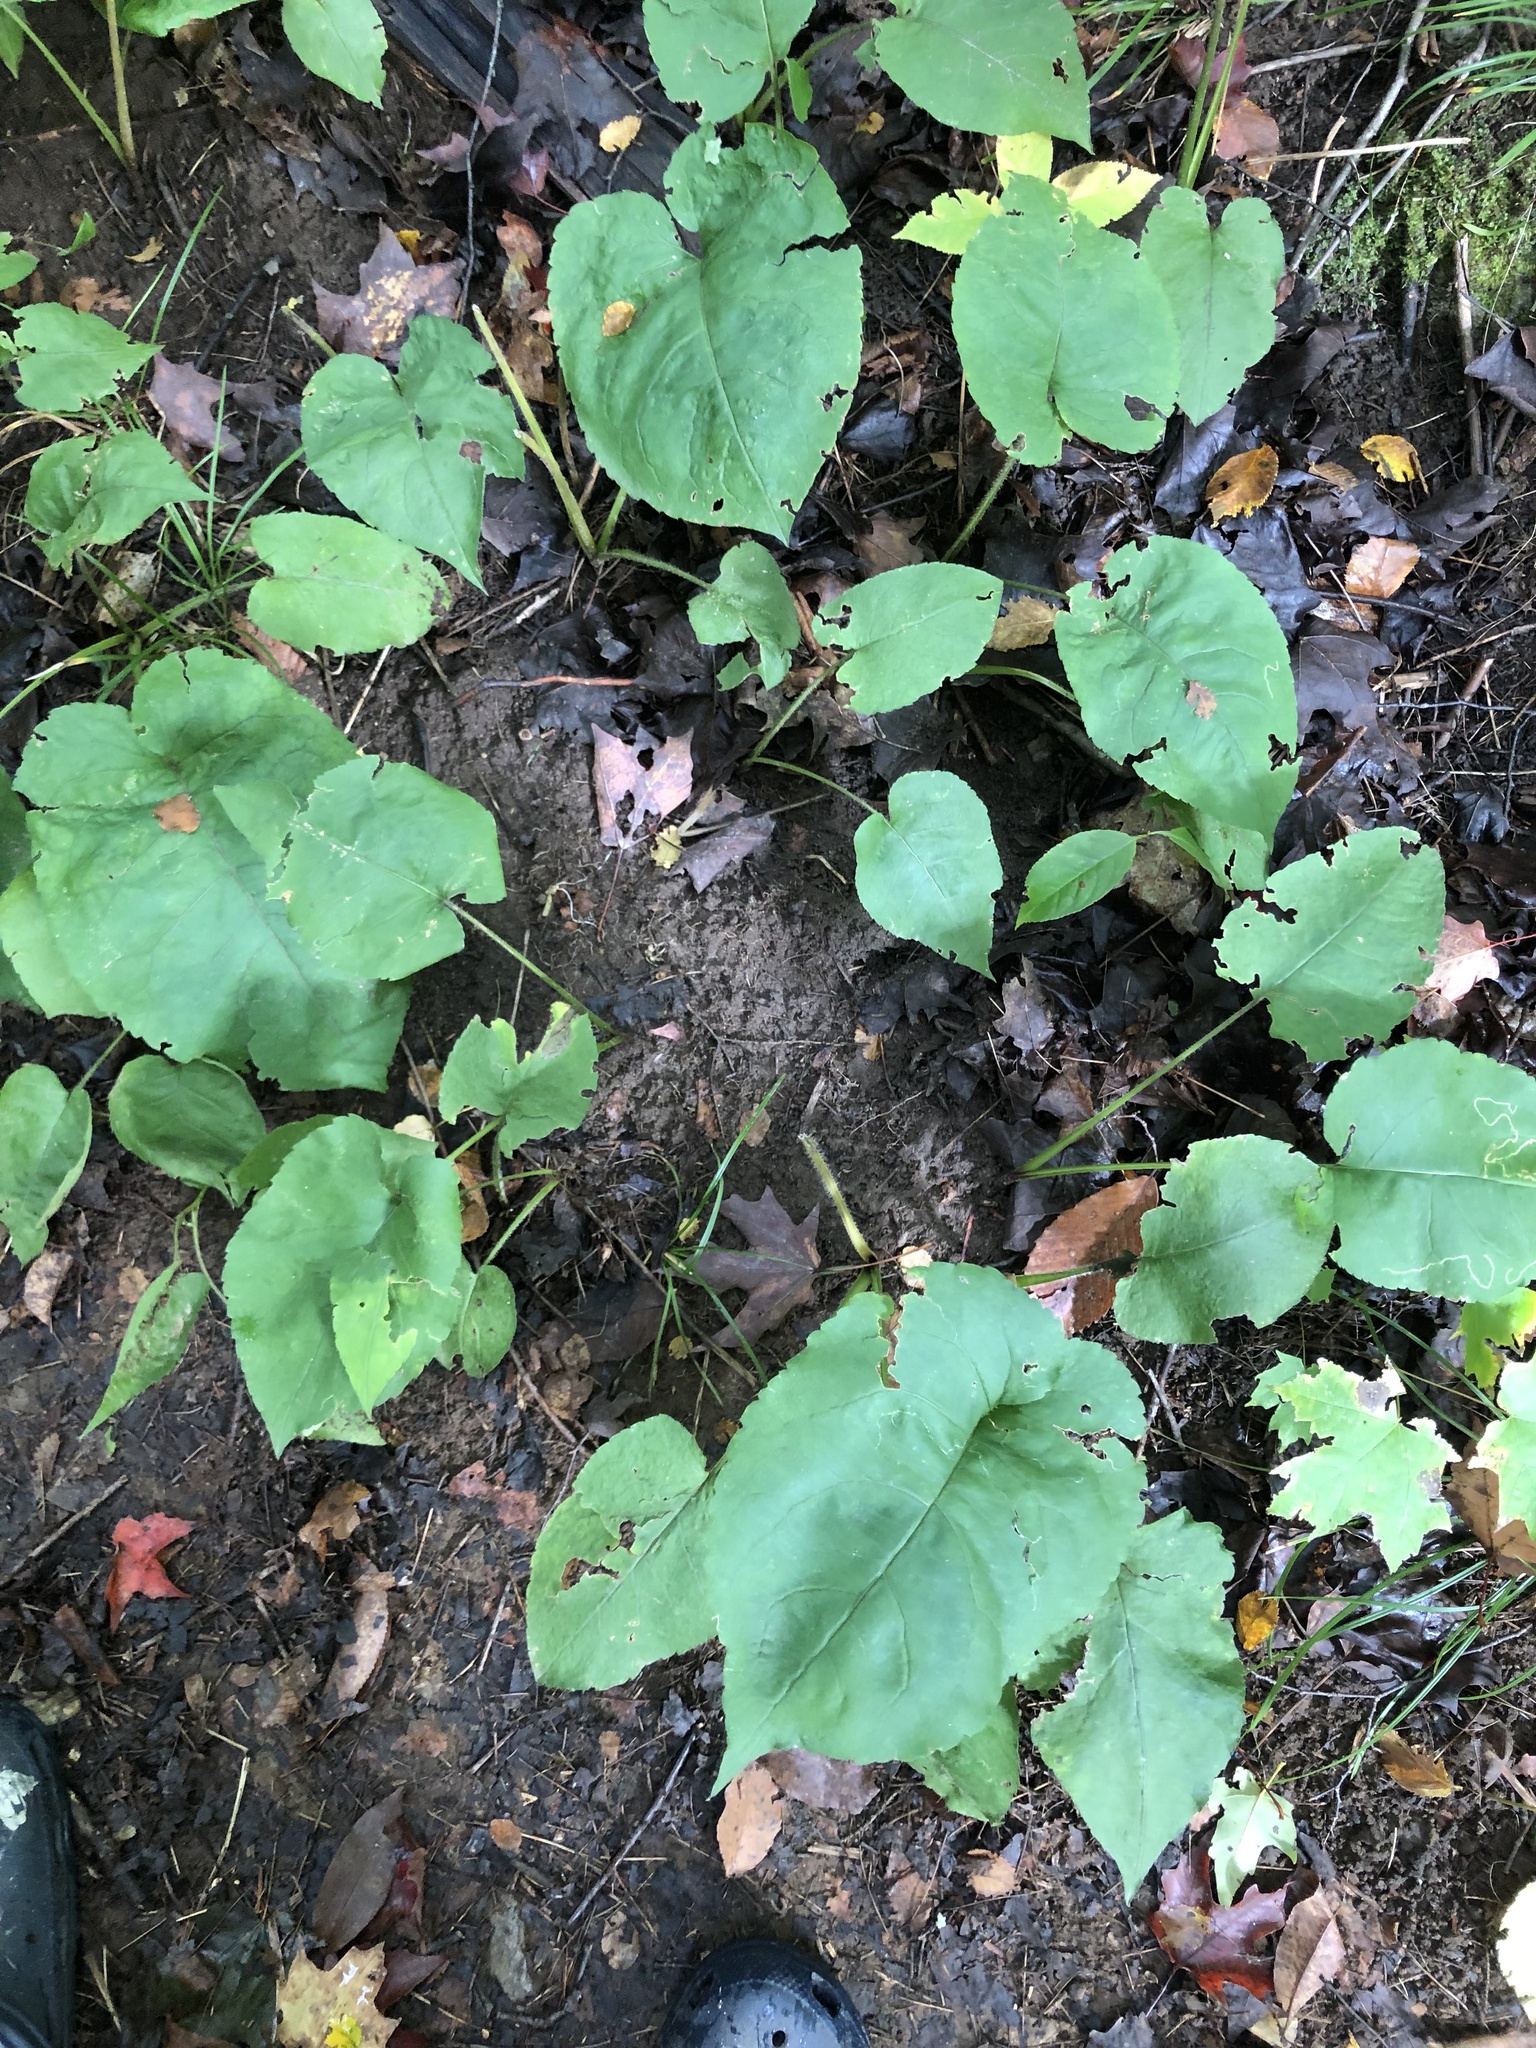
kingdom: Plantae
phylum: Tracheophyta
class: Magnoliopsida
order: Asterales
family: Asteraceae
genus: Eurybia
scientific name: Eurybia macrophylla
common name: Big-leaved aster
